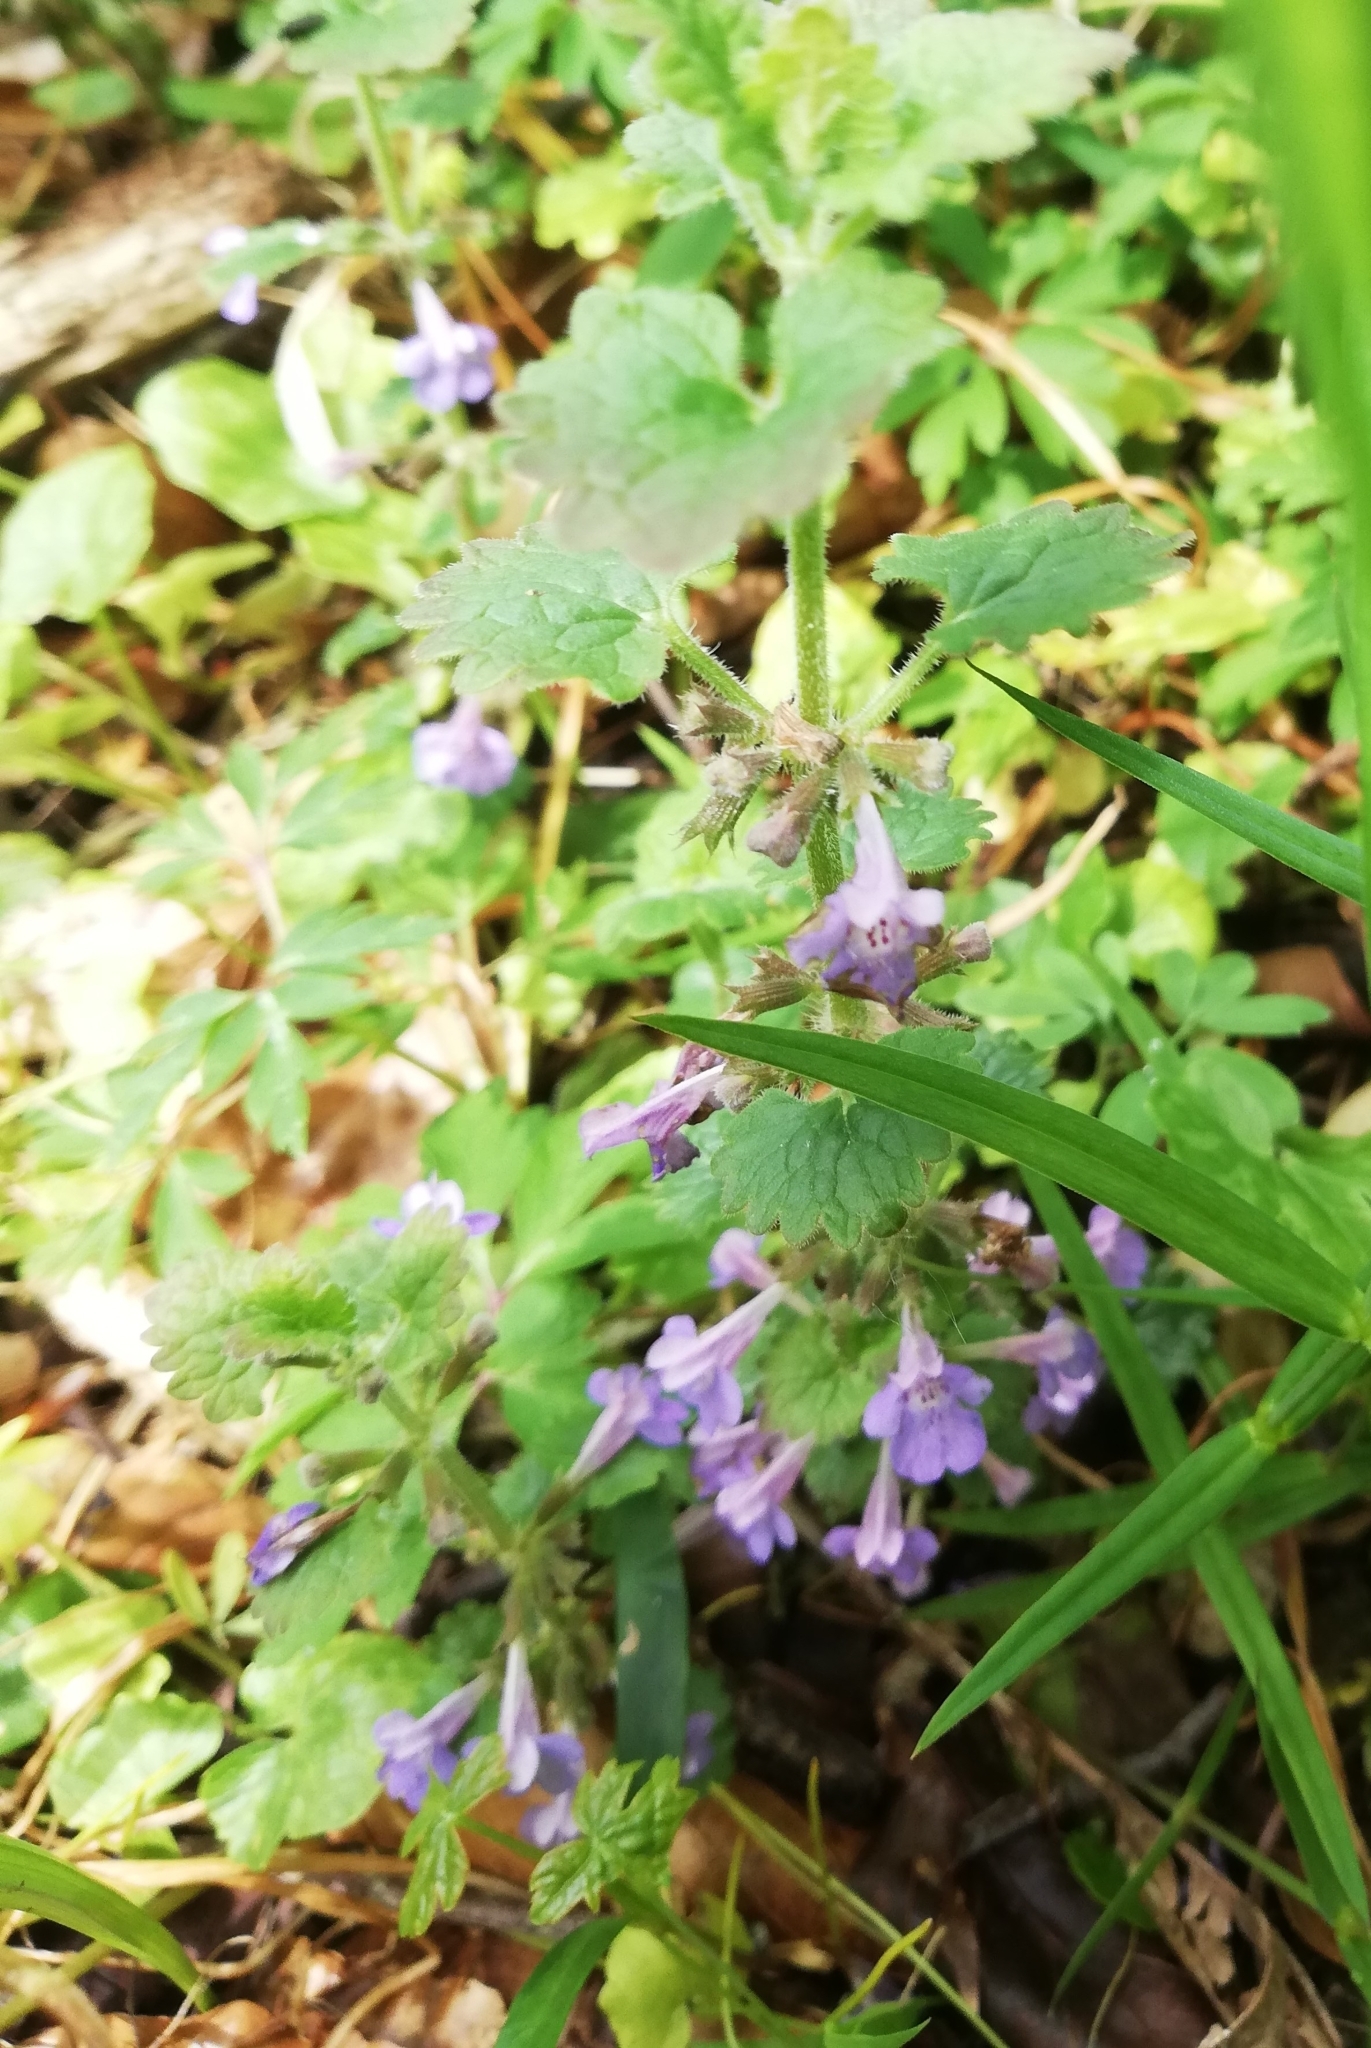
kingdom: Plantae
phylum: Tracheophyta
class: Magnoliopsida
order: Lamiales
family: Lamiaceae
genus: Glechoma
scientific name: Glechoma hederacea
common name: Ground ivy
